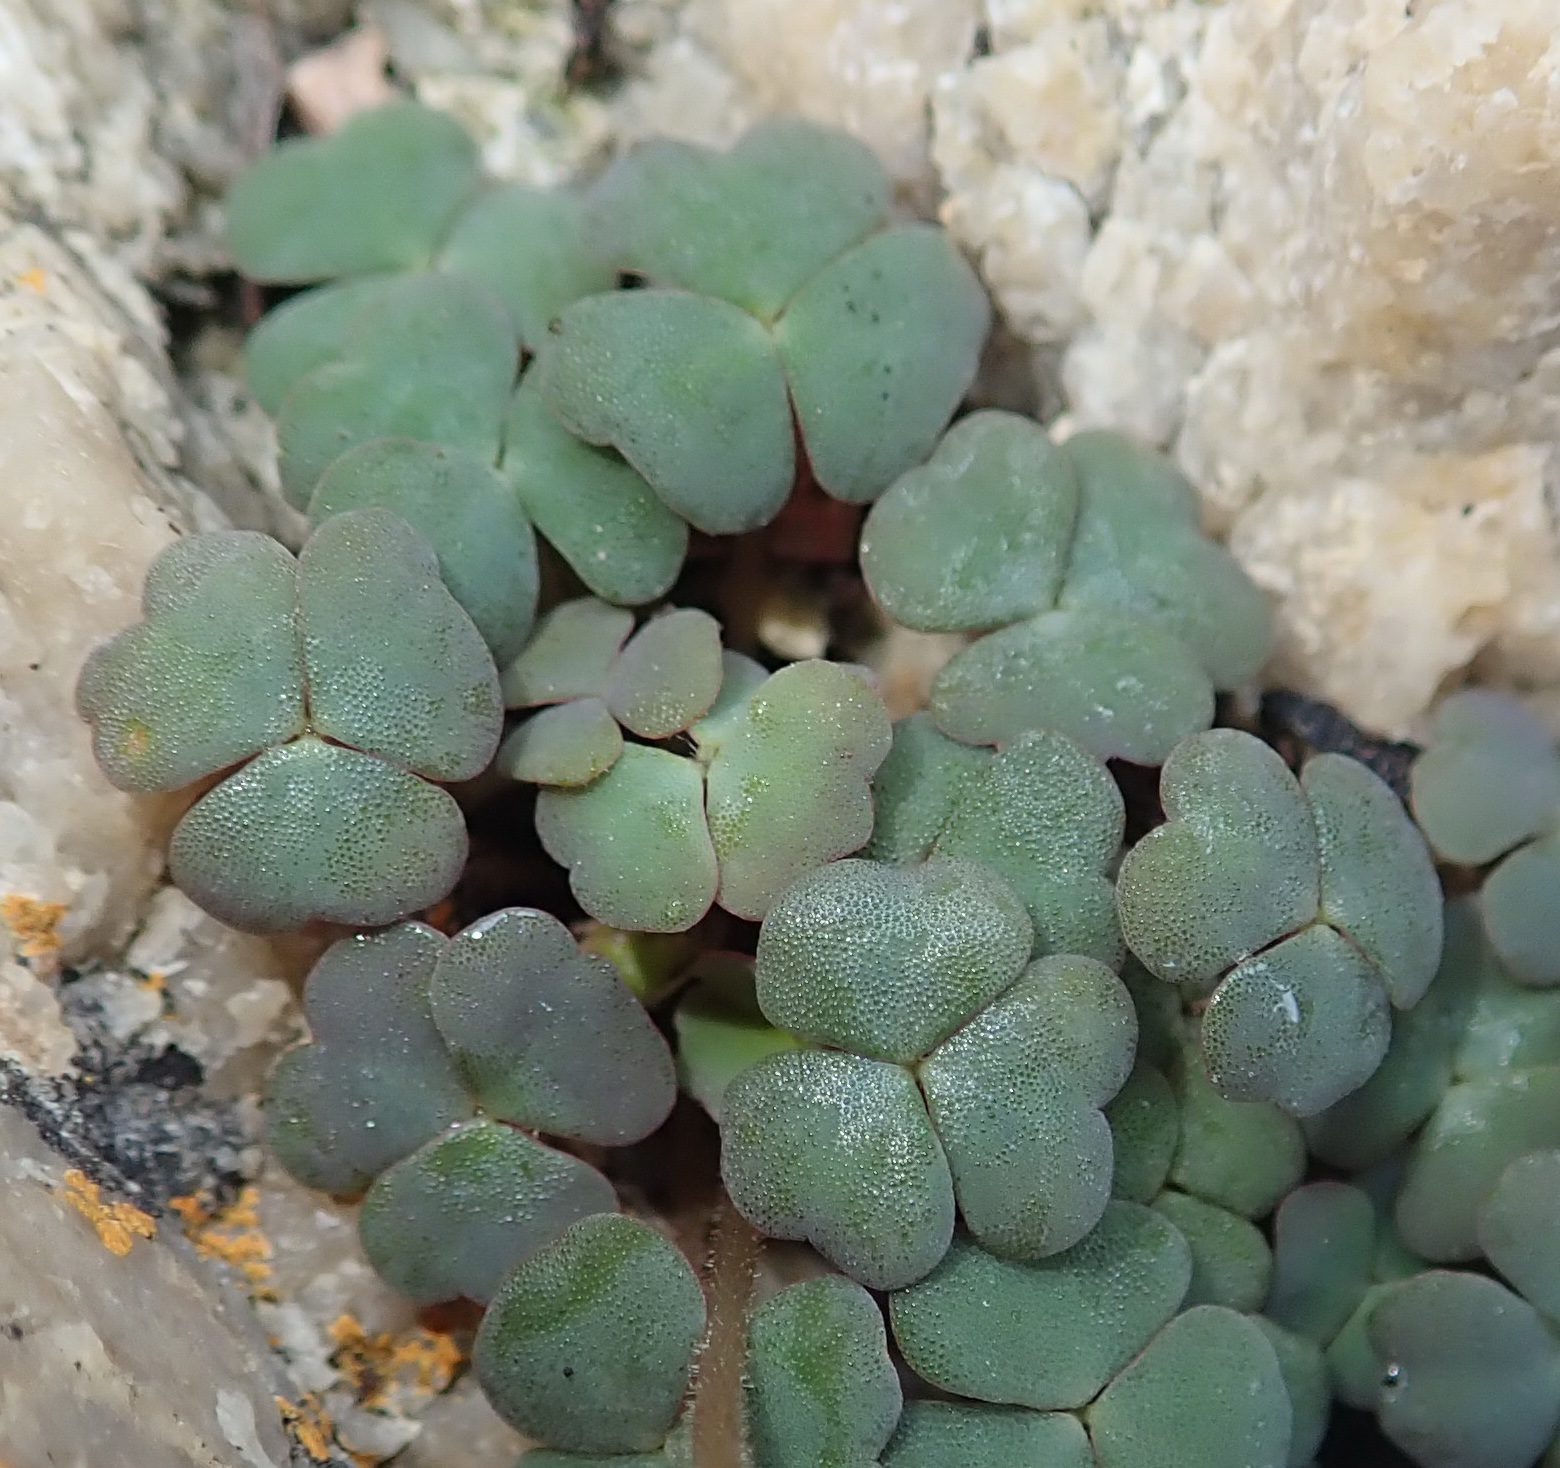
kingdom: Plantae
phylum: Tracheophyta
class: Magnoliopsida
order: Oxalidales
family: Oxalidaceae
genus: Oxalis
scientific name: Oxalis punctata
